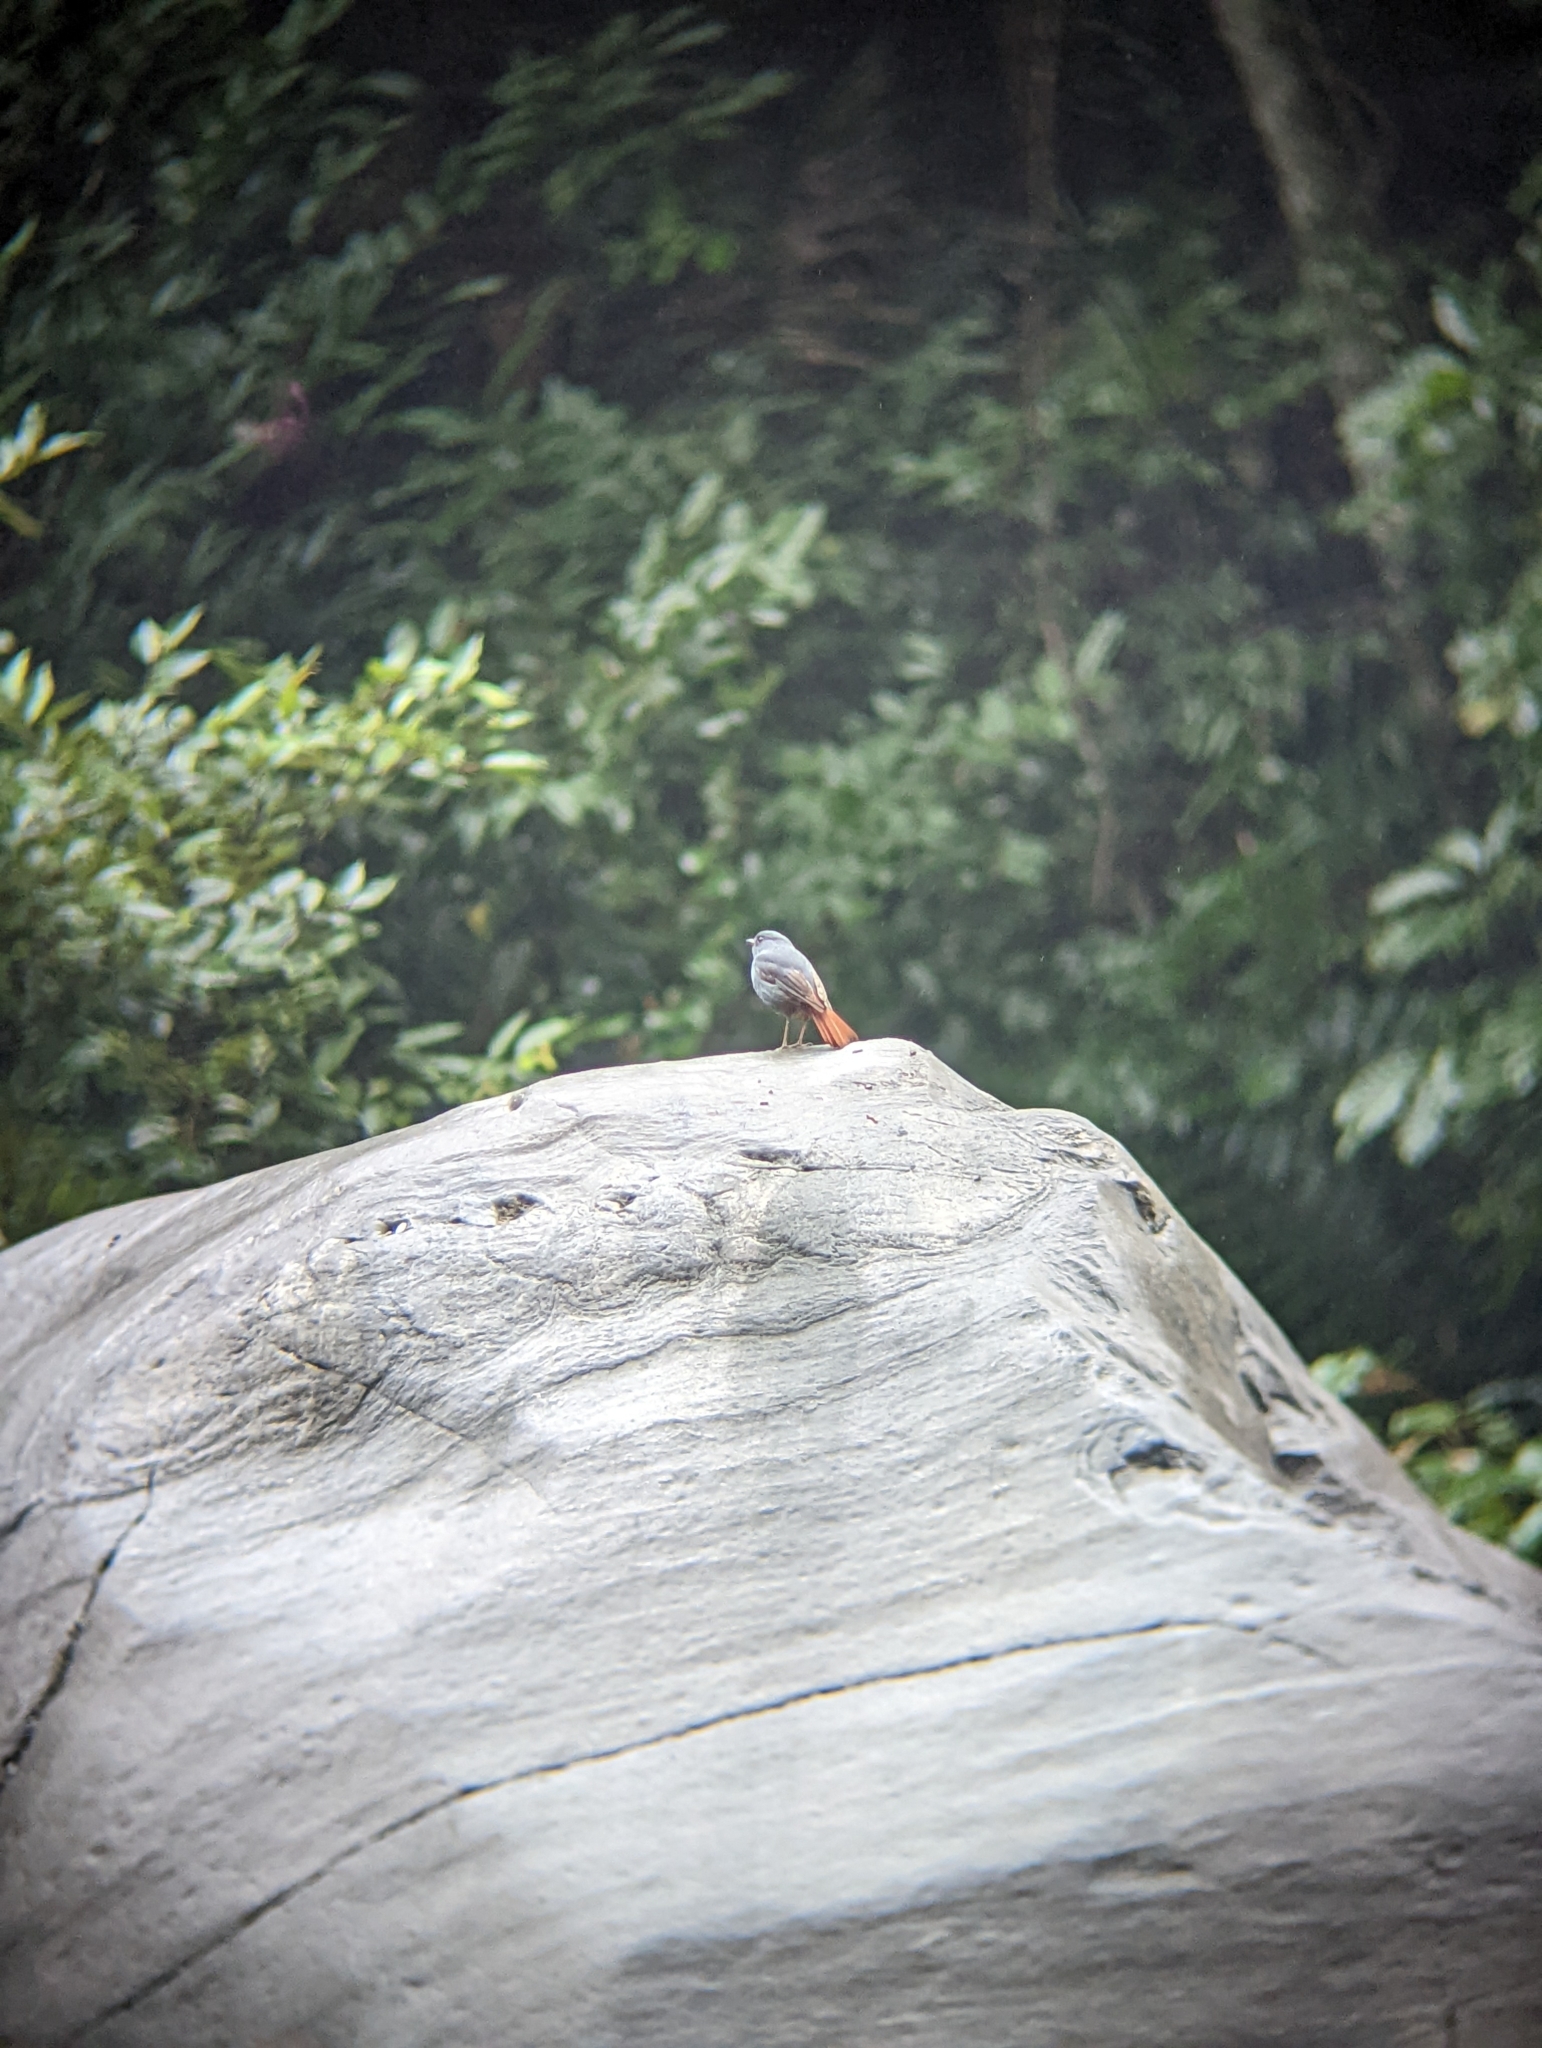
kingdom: Animalia
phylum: Chordata
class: Aves
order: Passeriformes
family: Muscicapidae
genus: Phoenicurus
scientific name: Phoenicurus fuliginosus
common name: Plumbeous water redstart
